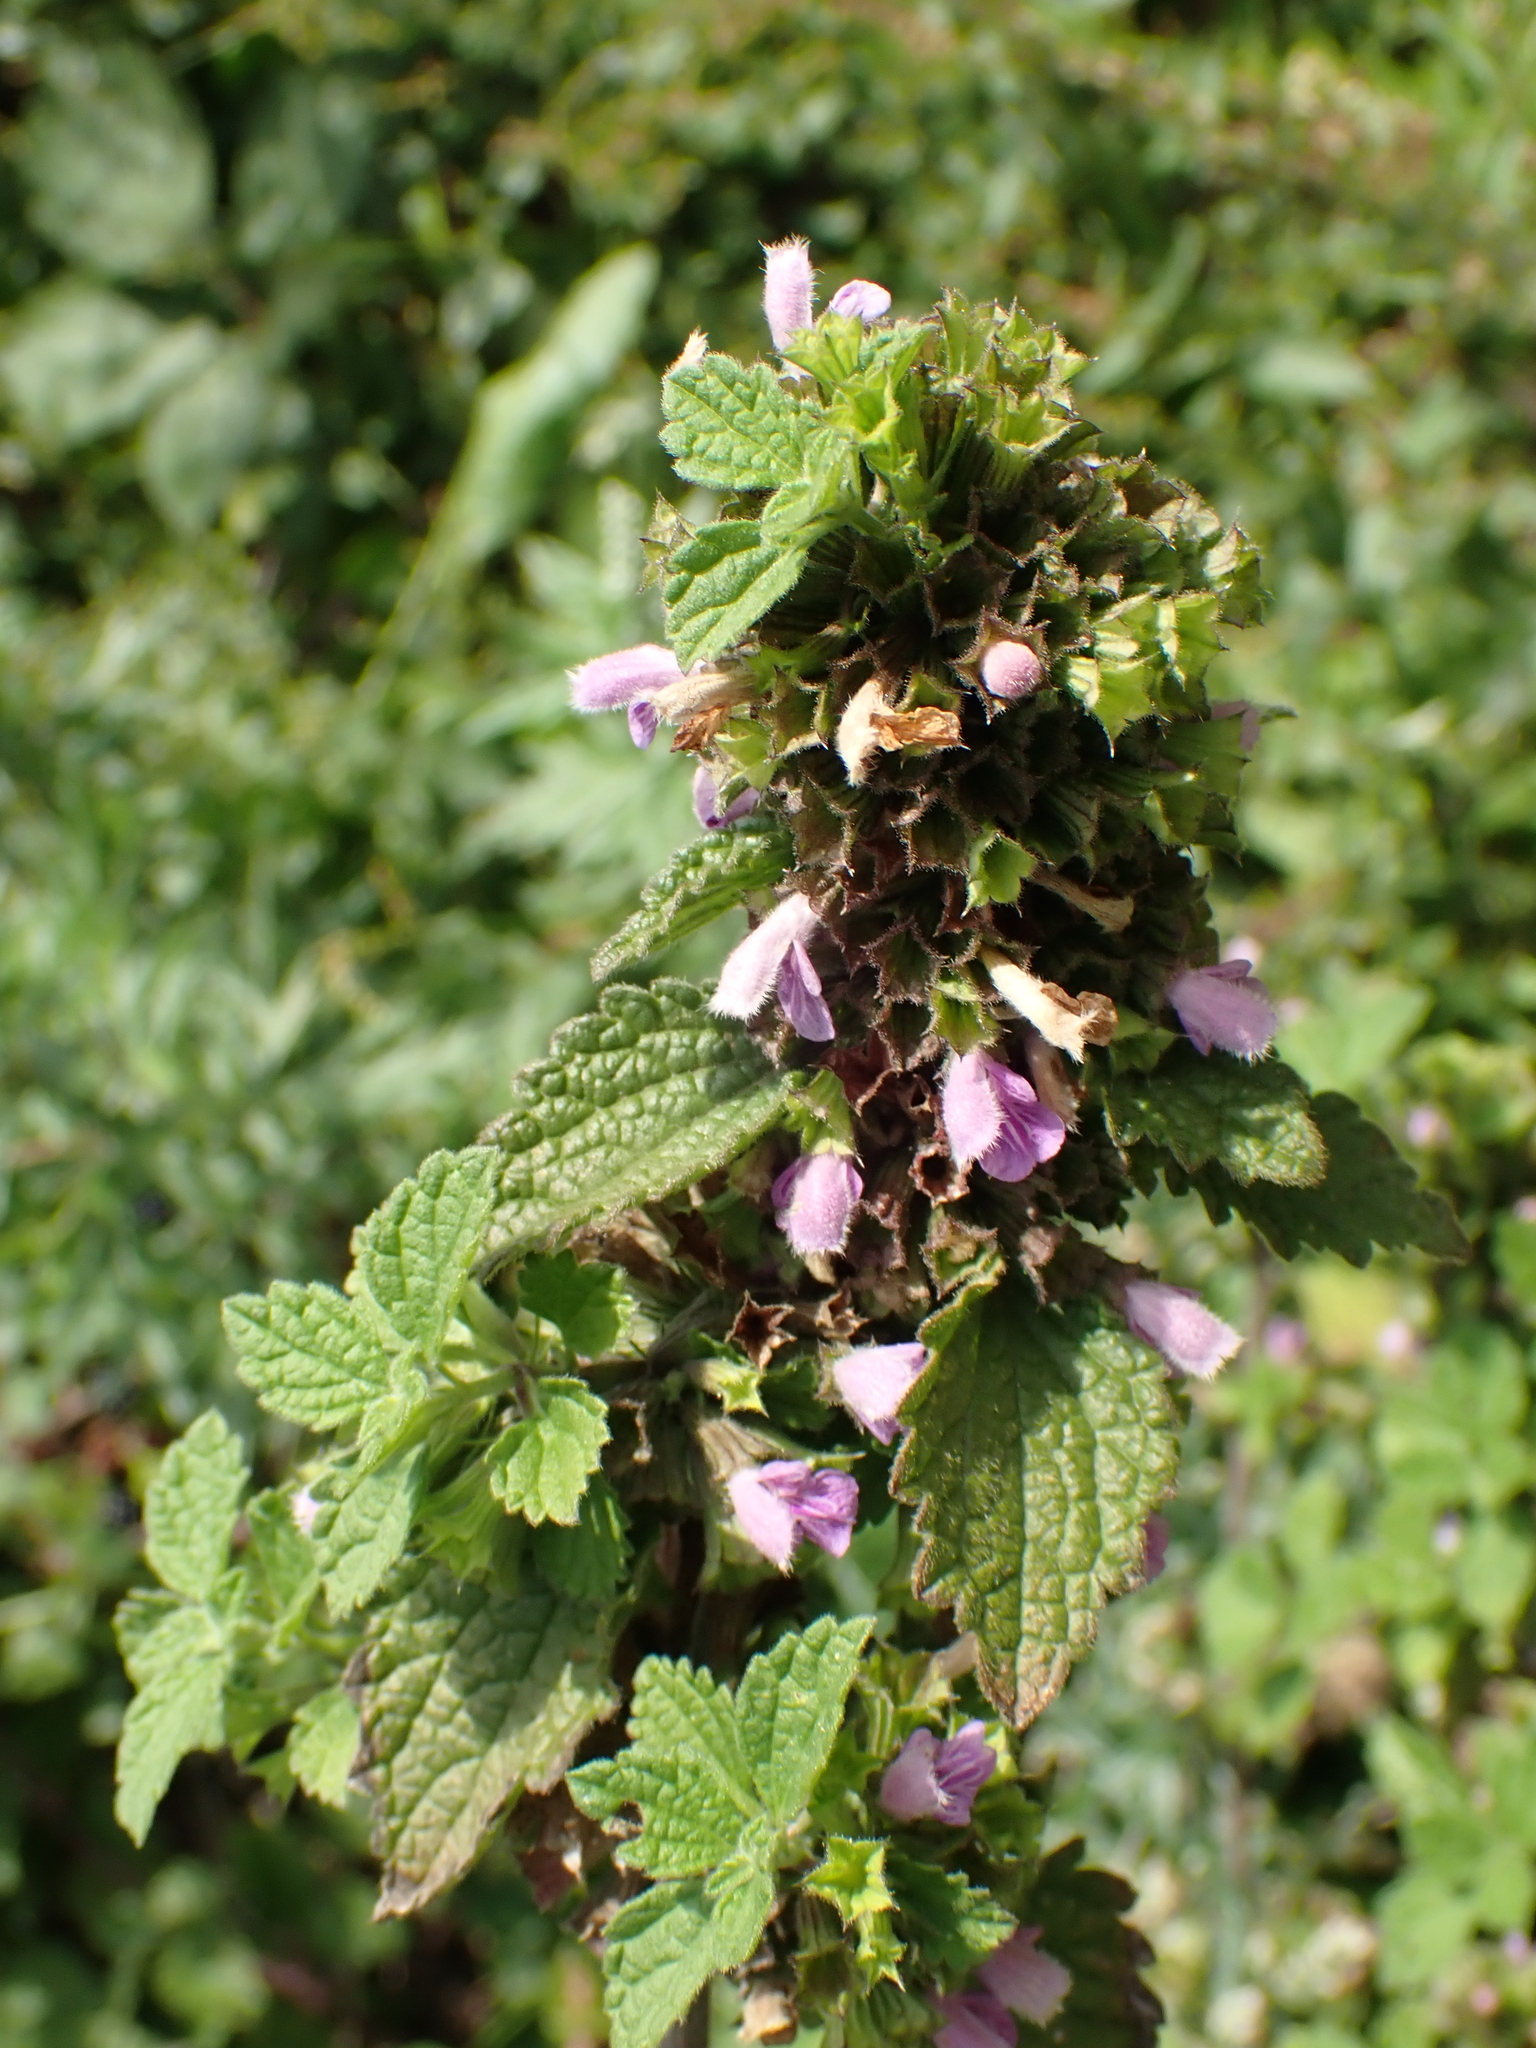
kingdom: Plantae
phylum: Tracheophyta
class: Magnoliopsida
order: Lamiales
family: Lamiaceae
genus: Ballota
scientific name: Ballota nigra
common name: Black horehound
